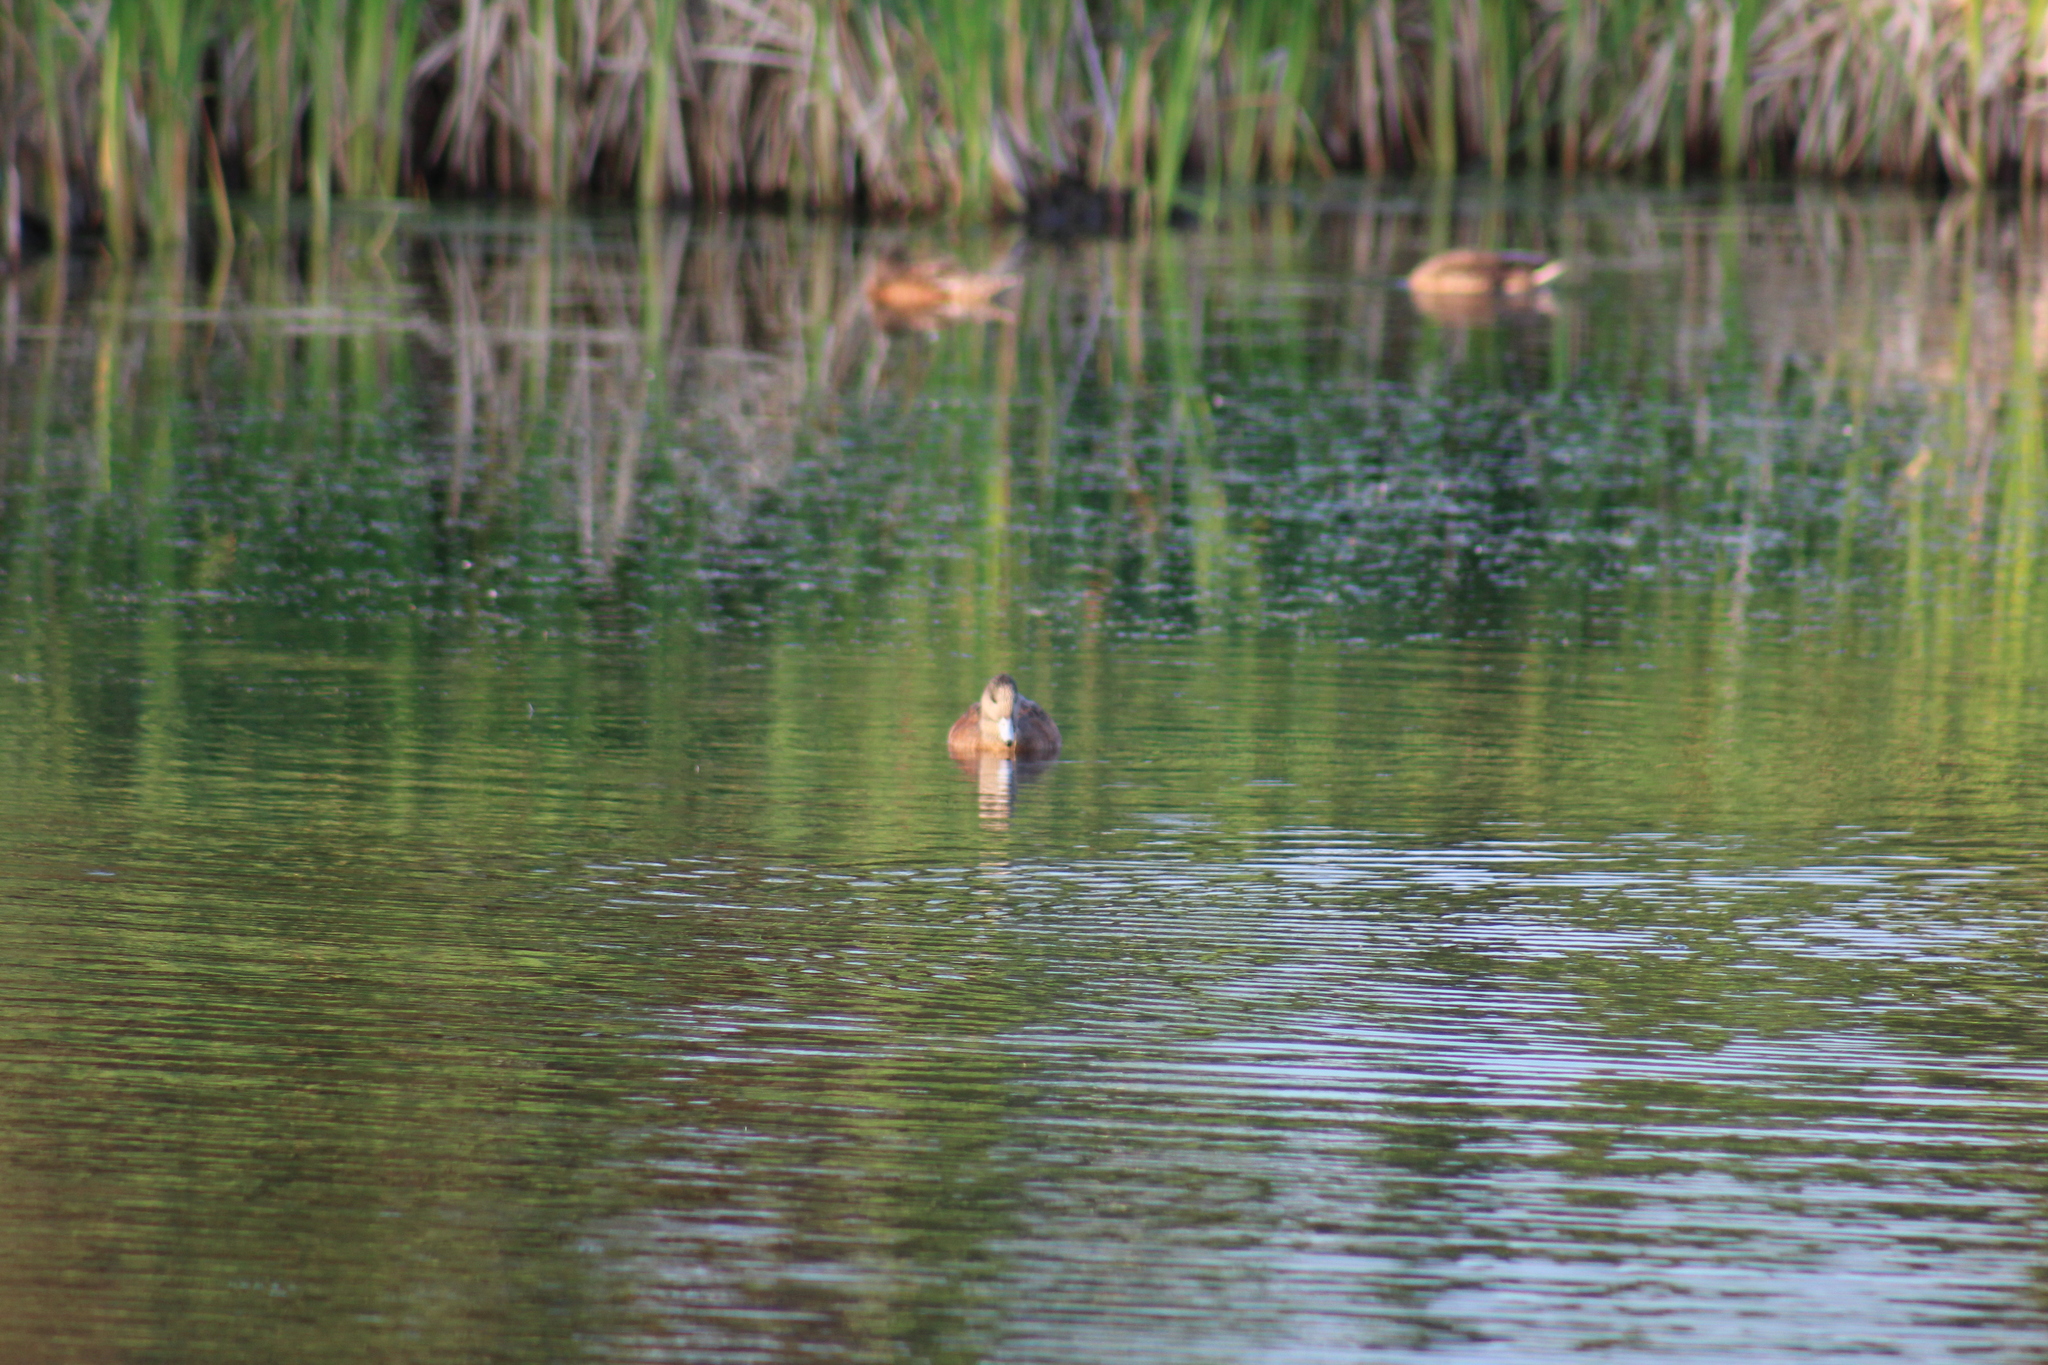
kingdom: Animalia
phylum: Chordata
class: Aves
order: Anseriformes
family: Anatidae
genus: Mareca
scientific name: Mareca americana
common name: American wigeon
